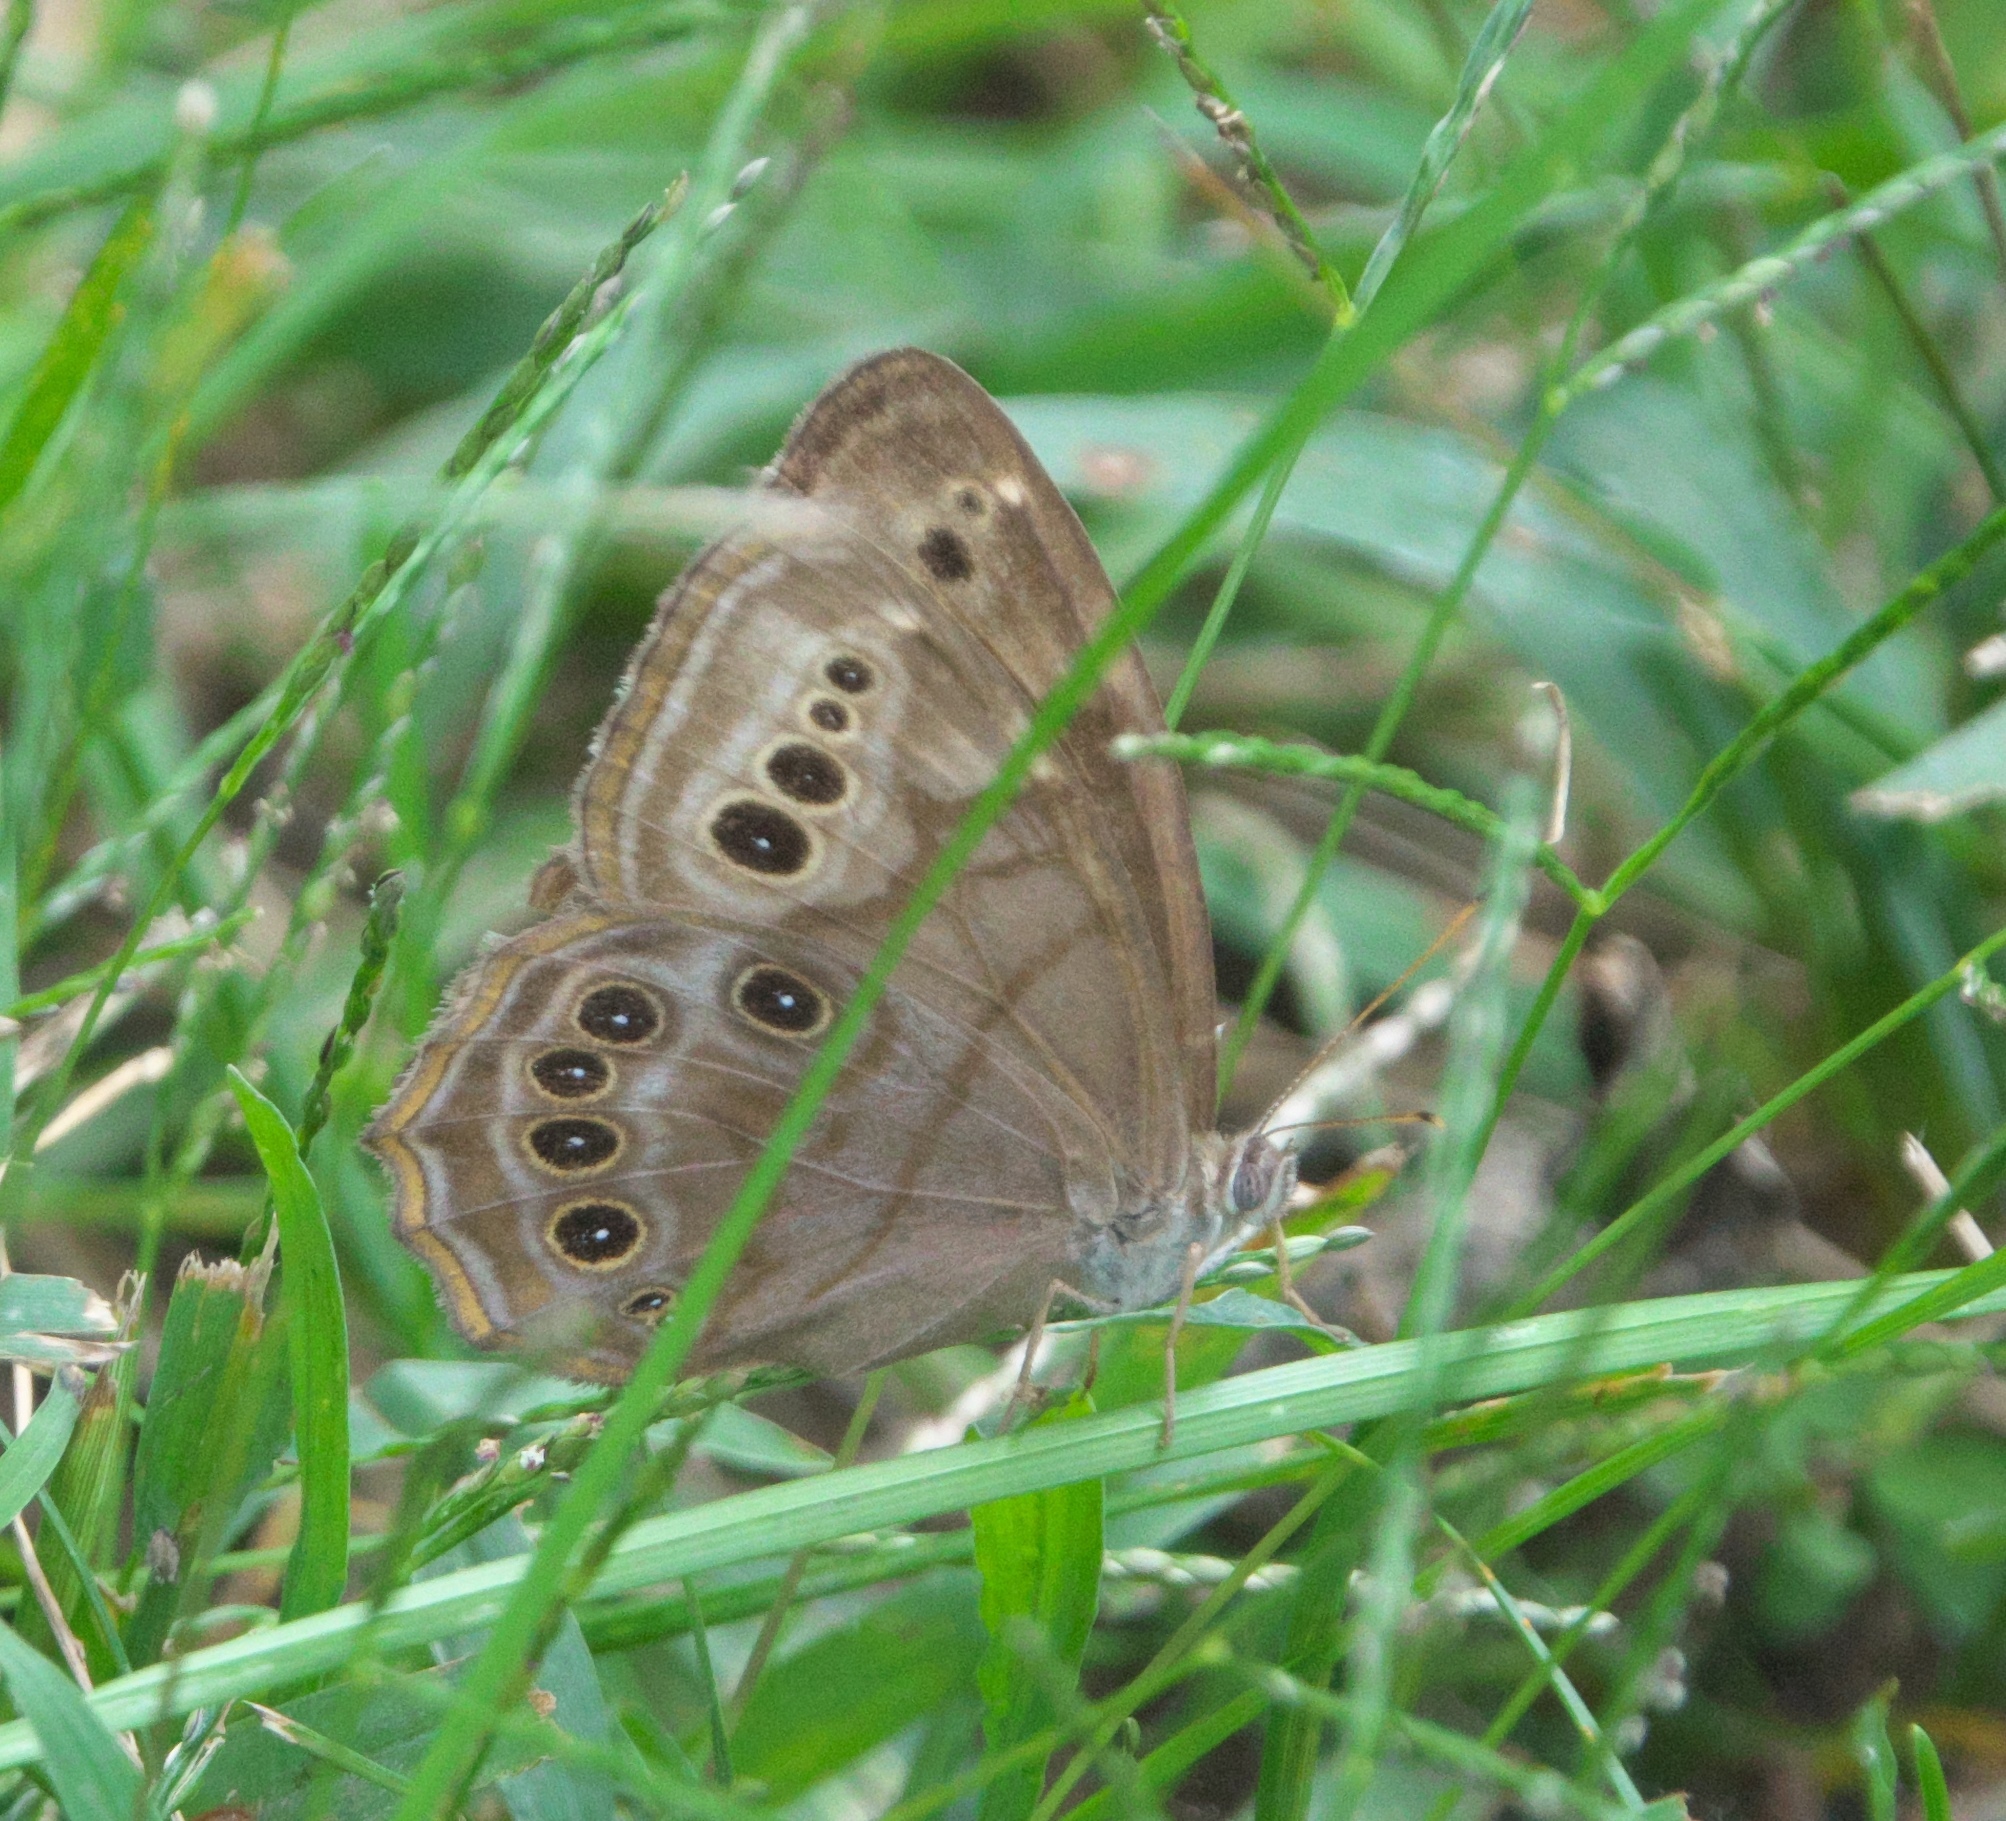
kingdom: Animalia
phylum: Arthropoda
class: Insecta
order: Lepidoptera
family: Nymphalidae
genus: Lethe
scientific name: Lethe anthedon
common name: Northern pearly-eye
